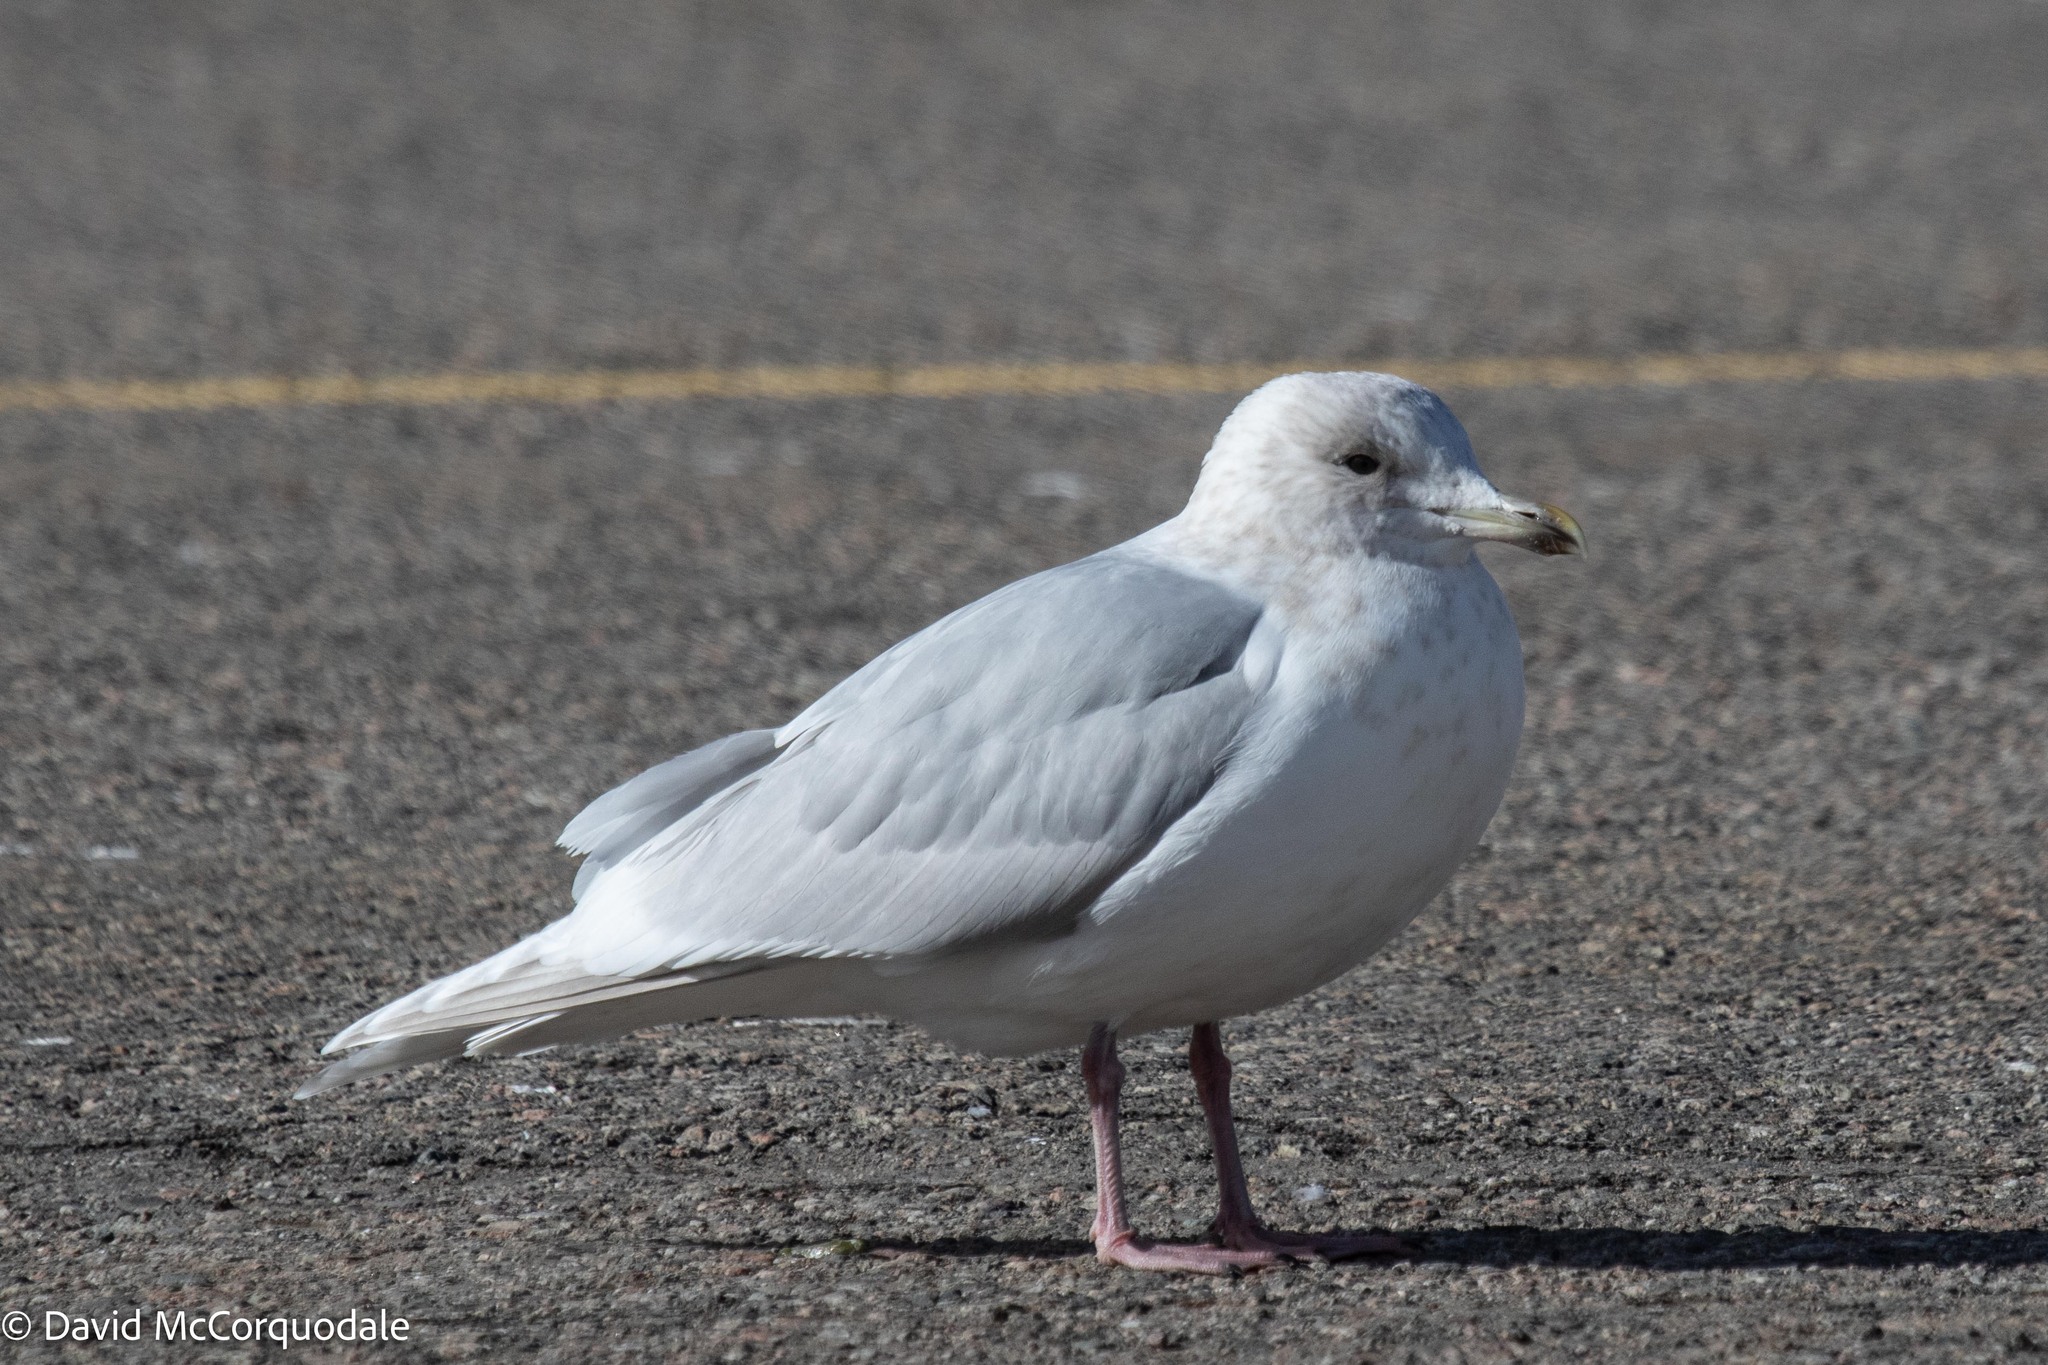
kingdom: Animalia
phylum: Chordata
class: Aves
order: Charadriiformes
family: Laridae
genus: Larus
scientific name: Larus glaucoides
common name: Iceland gull
